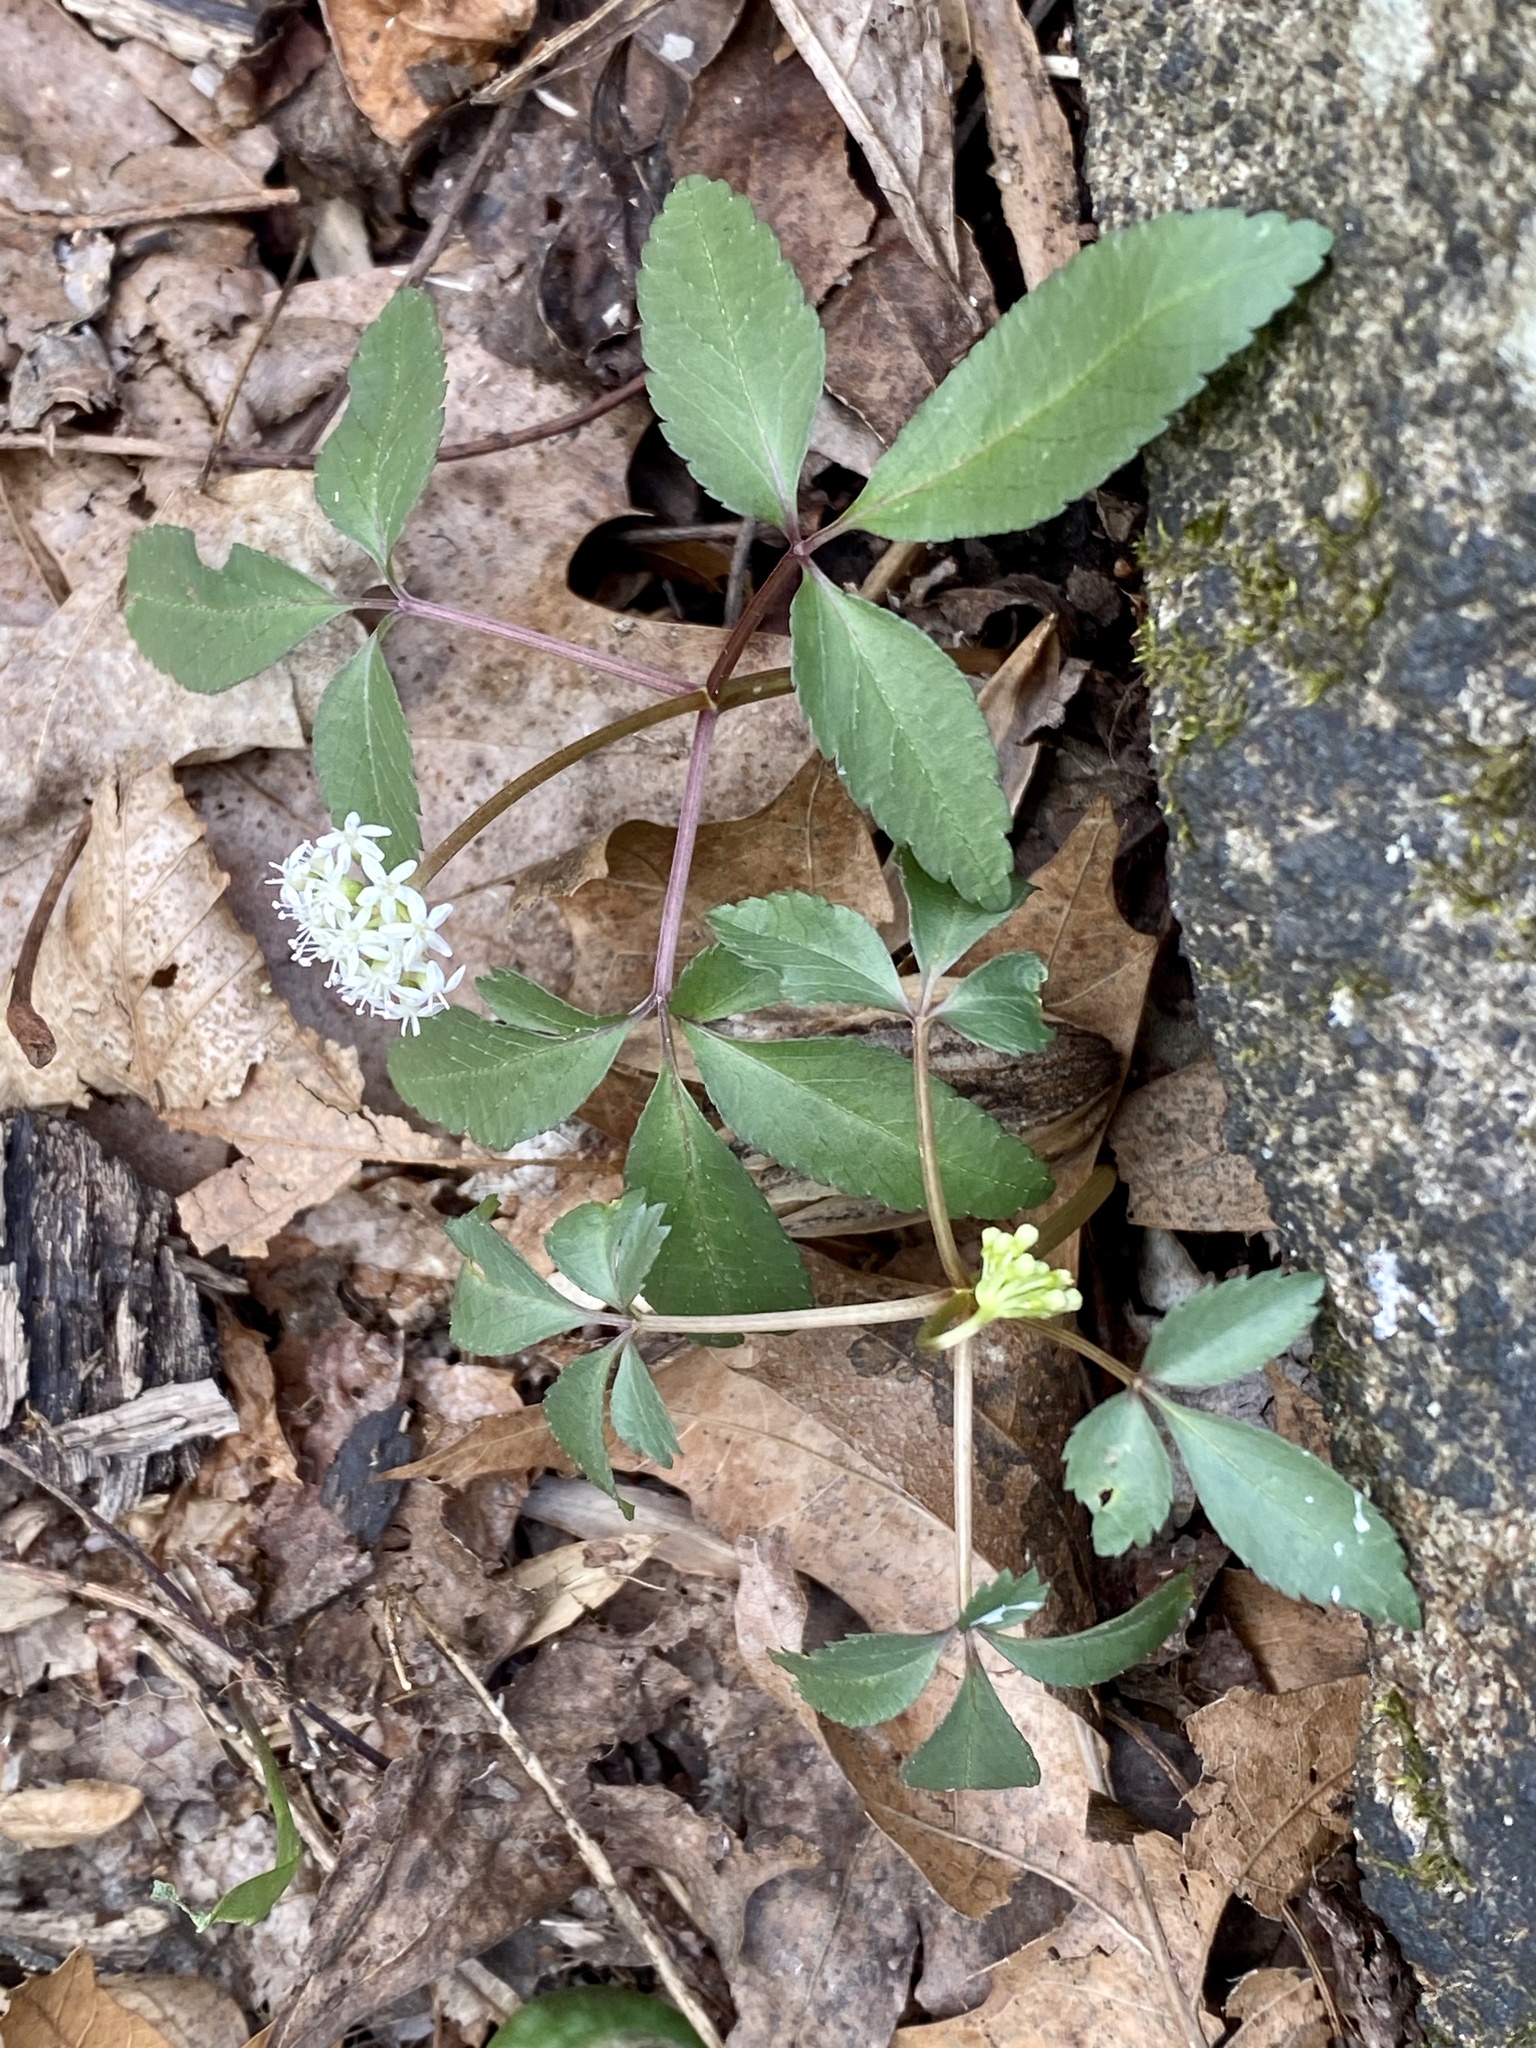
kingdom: Plantae
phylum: Tracheophyta
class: Magnoliopsida
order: Apiales
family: Araliaceae
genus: Panax
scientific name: Panax trifolius
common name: Dwarf ginseng
